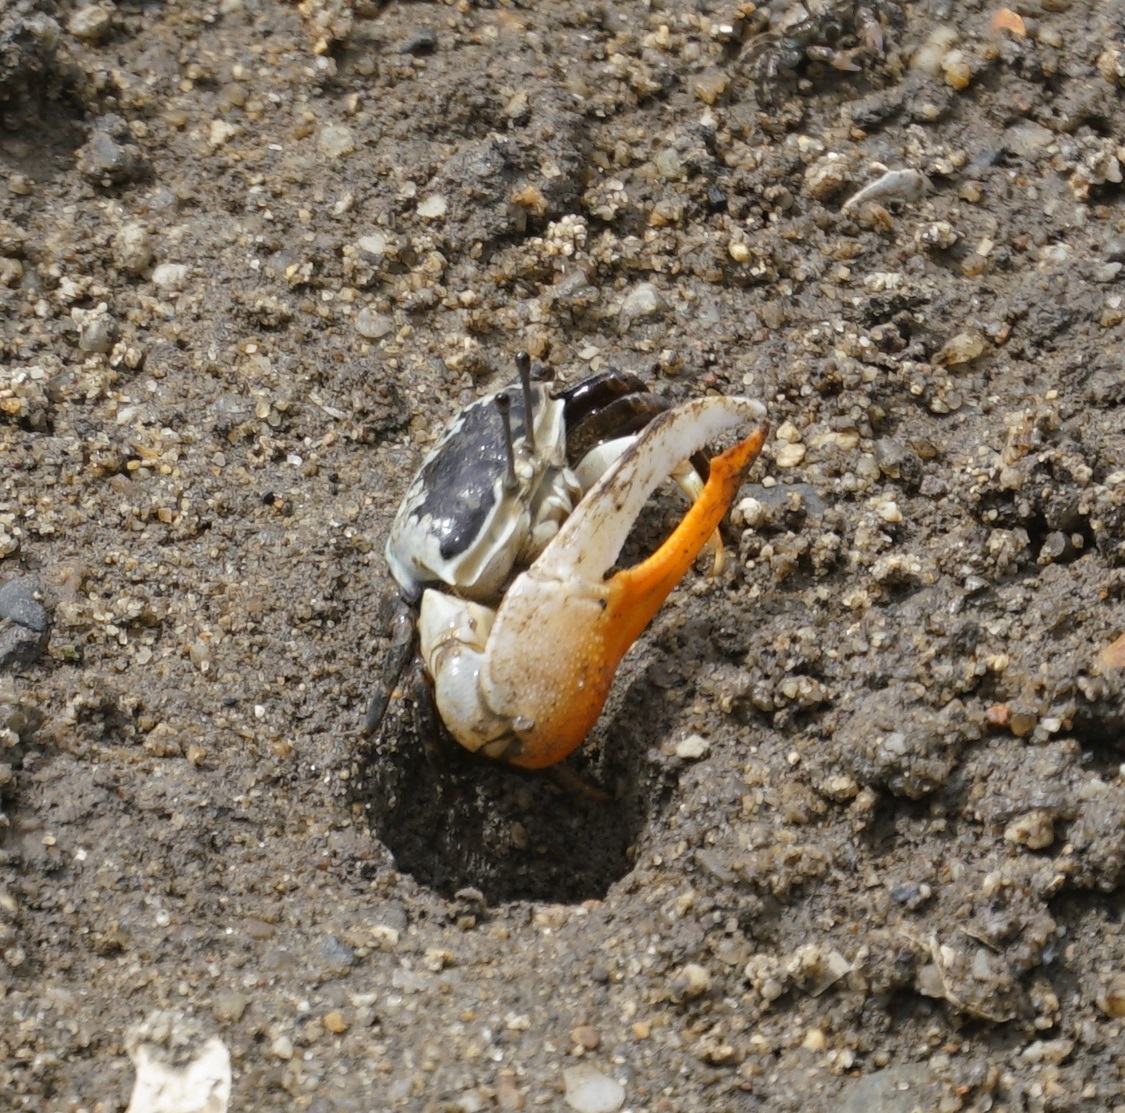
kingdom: Animalia
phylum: Arthropoda
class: Malacostraca
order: Decapoda
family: Ocypodidae
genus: Gelasimus
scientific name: Gelasimus vomeris
